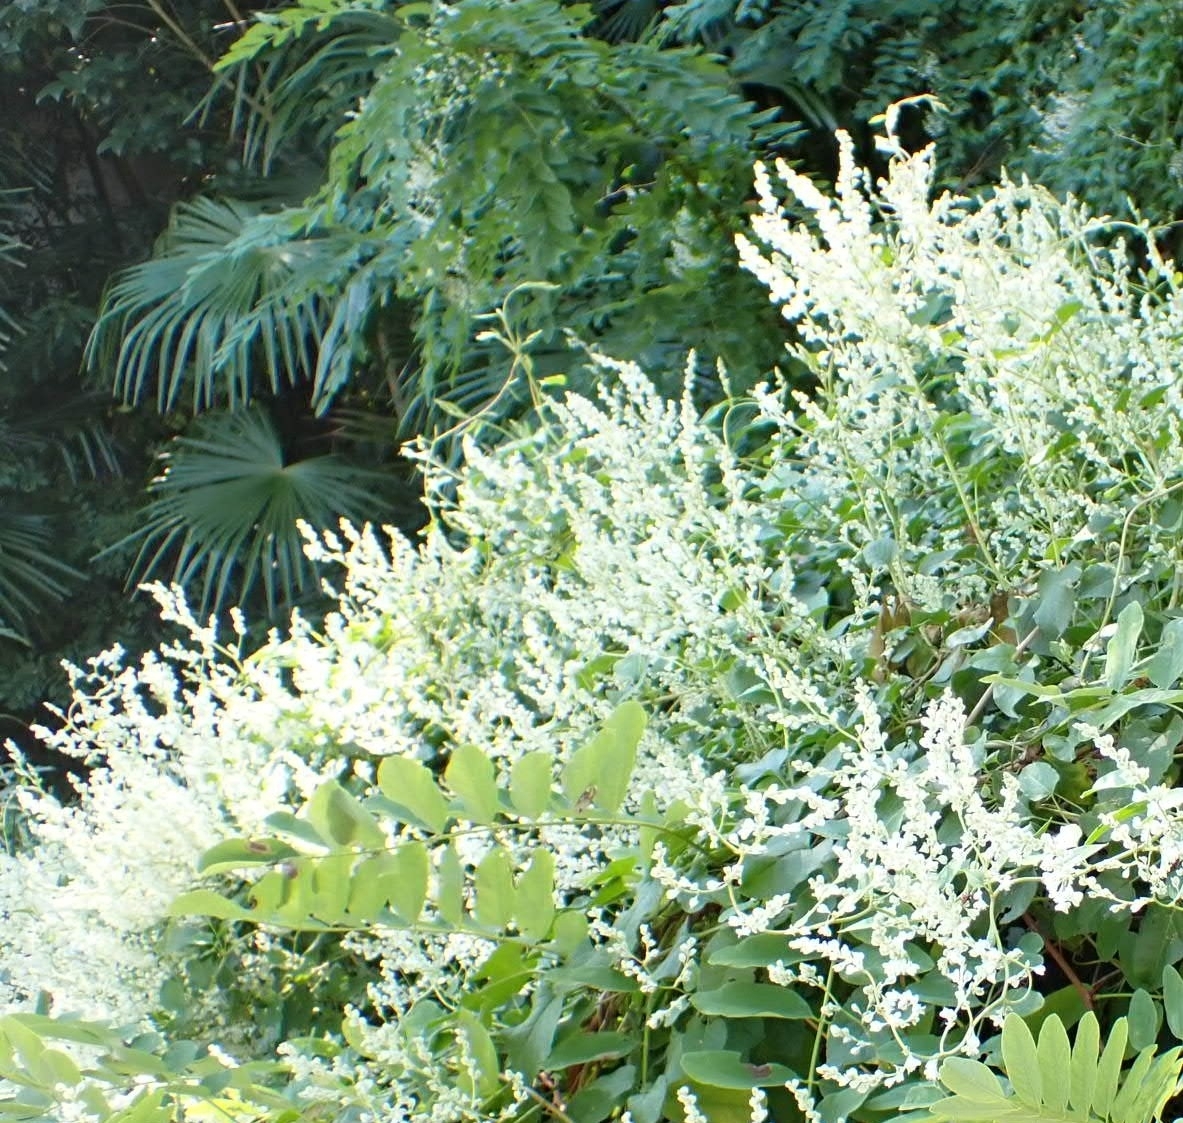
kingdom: Plantae
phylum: Tracheophyta
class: Magnoliopsida
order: Caryophyllales
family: Polygonaceae
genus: Fallopia
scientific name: Fallopia dumetorum
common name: Copse-bindweed
